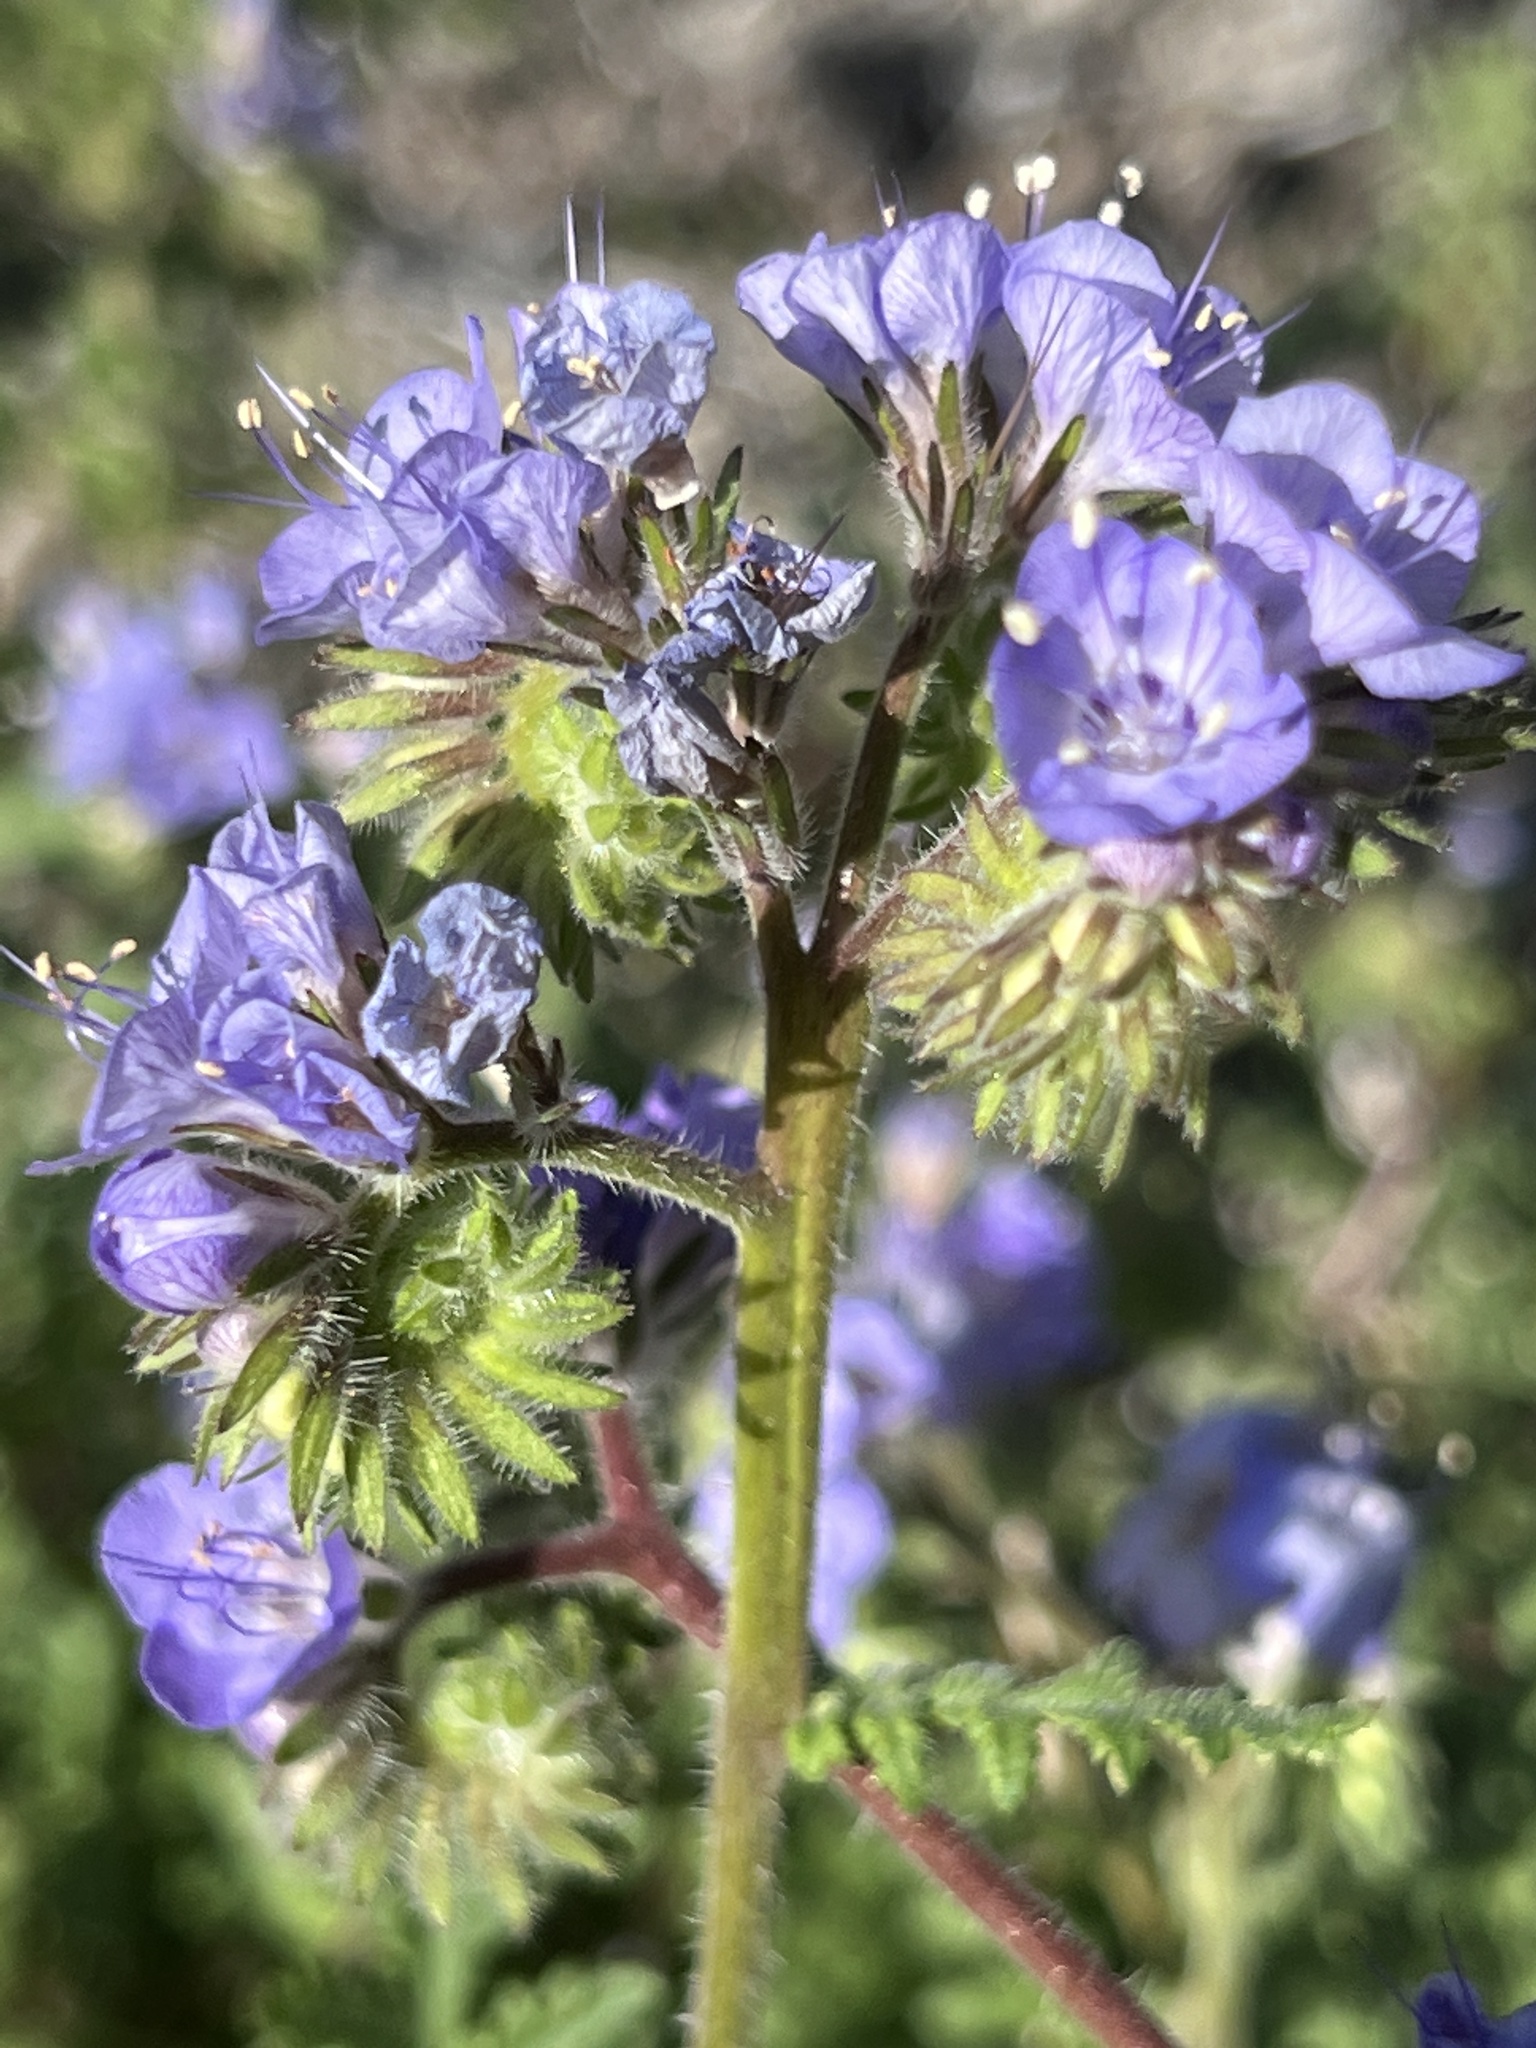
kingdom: Plantae
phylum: Tracheophyta
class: Magnoliopsida
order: Boraginales
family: Hydrophyllaceae
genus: Phacelia
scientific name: Phacelia distans
